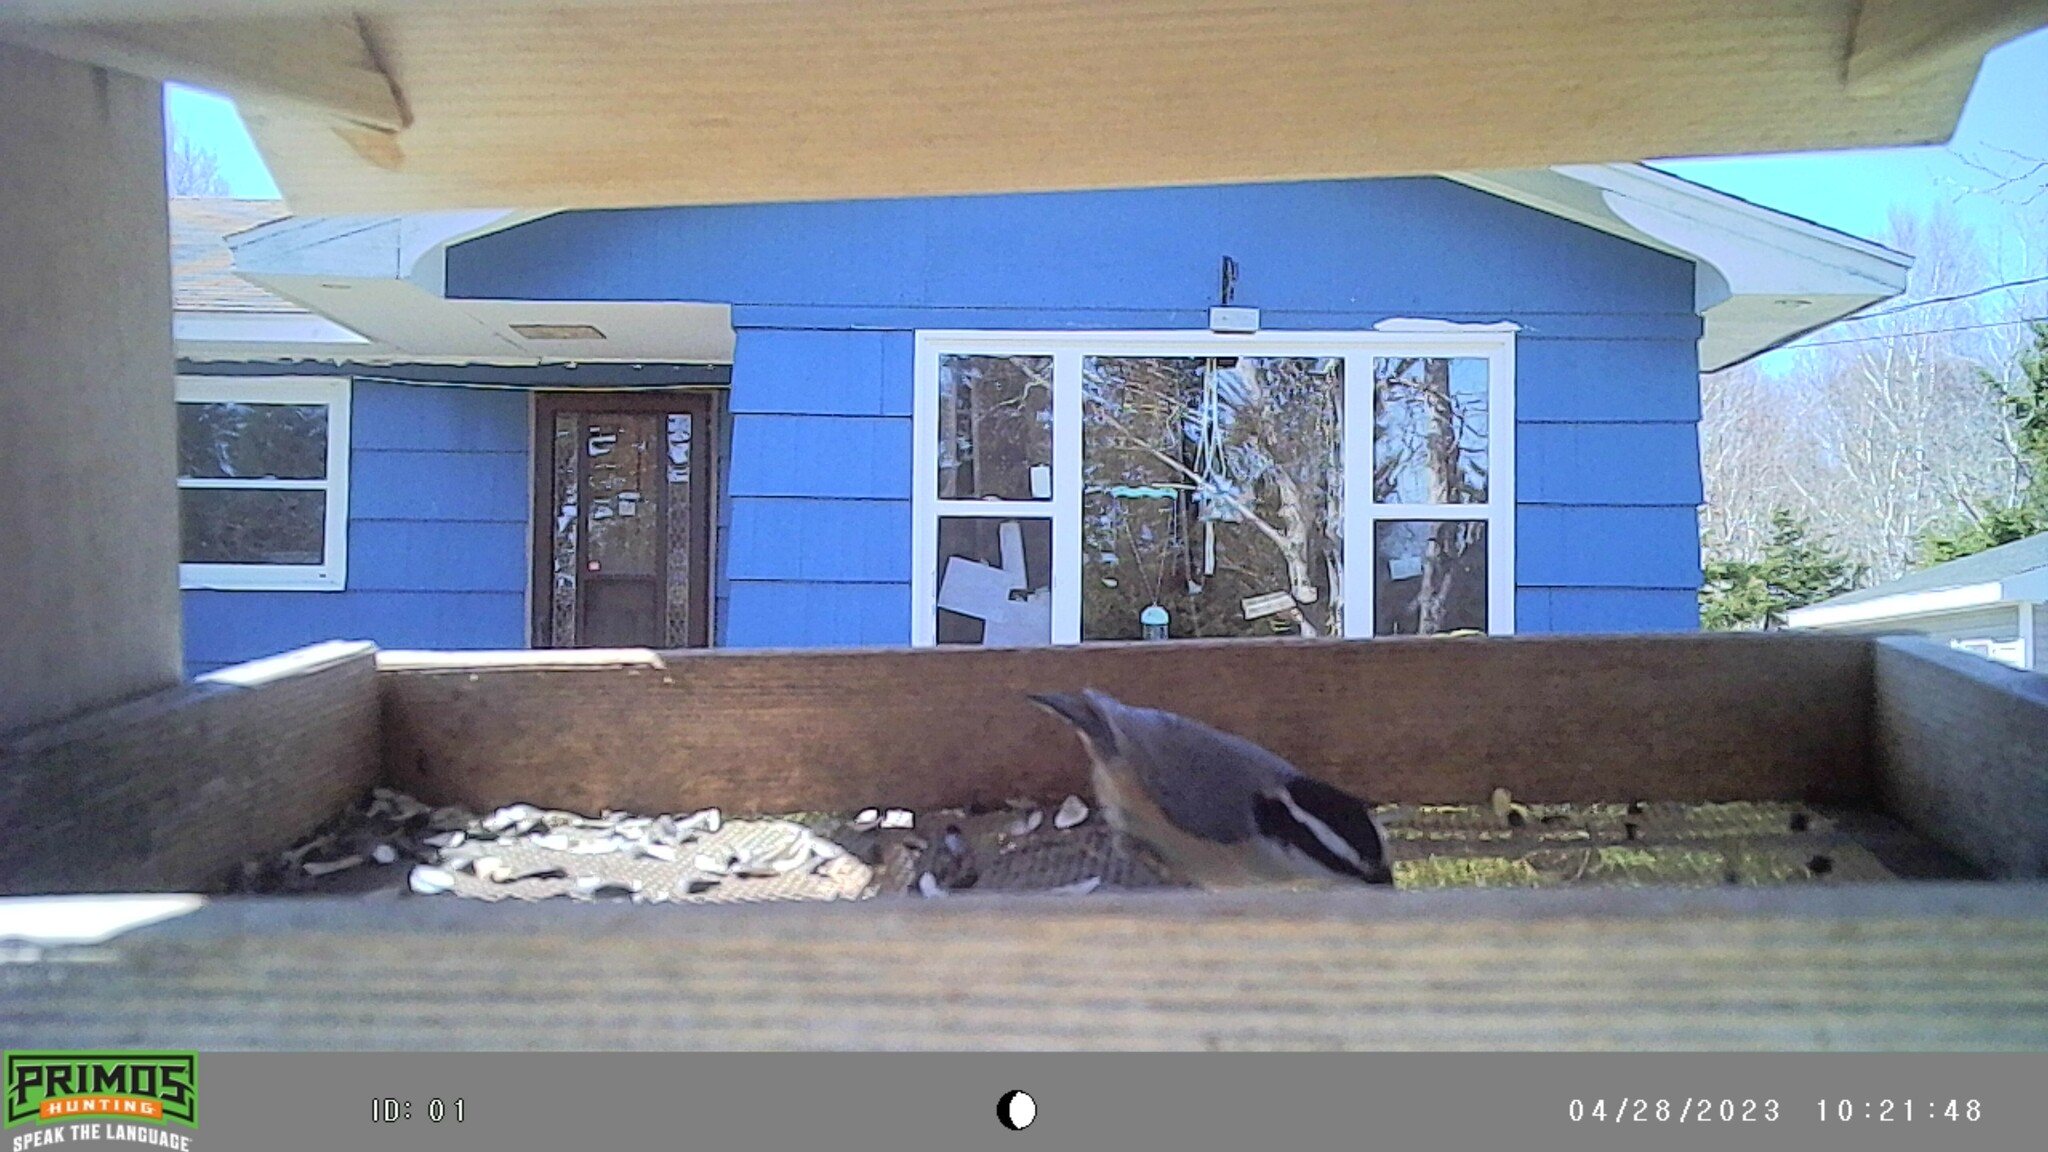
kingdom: Animalia
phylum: Chordata
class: Aves
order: Passeriformes
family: Sittidae
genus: Sitta
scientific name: Sitta canadensis
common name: Red-breasted nuthatch
